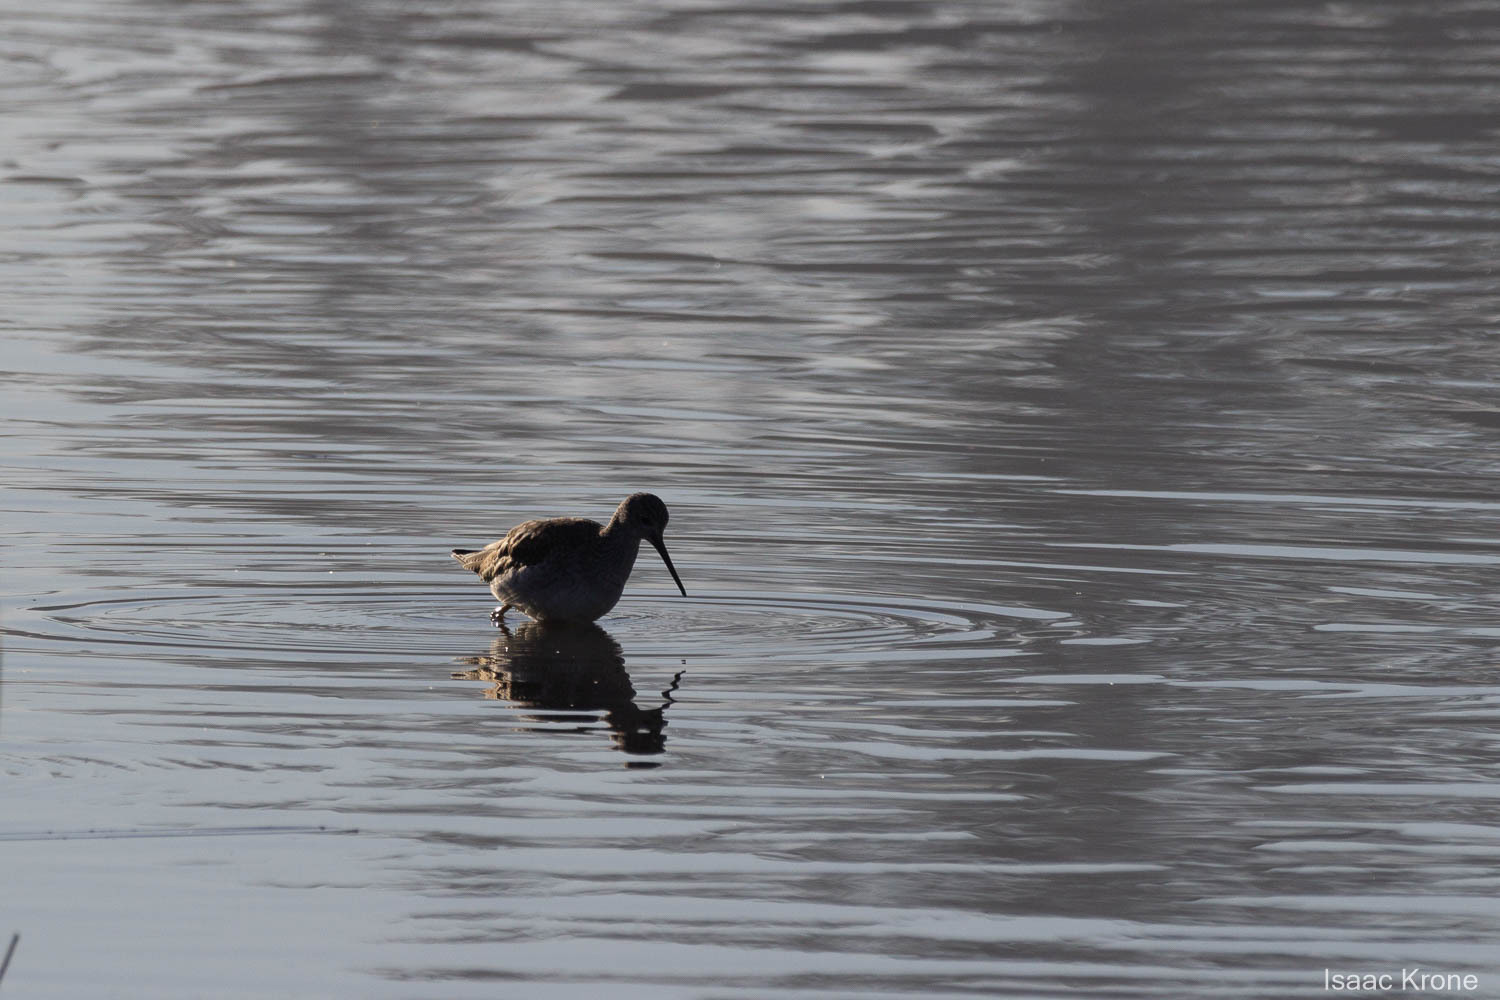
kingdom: Animalia
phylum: Chordata
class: Aves
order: Charadriiformes
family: Scolopacidae
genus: Tringa
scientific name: Tringa melanoleuca
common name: Greater yellowlegs
